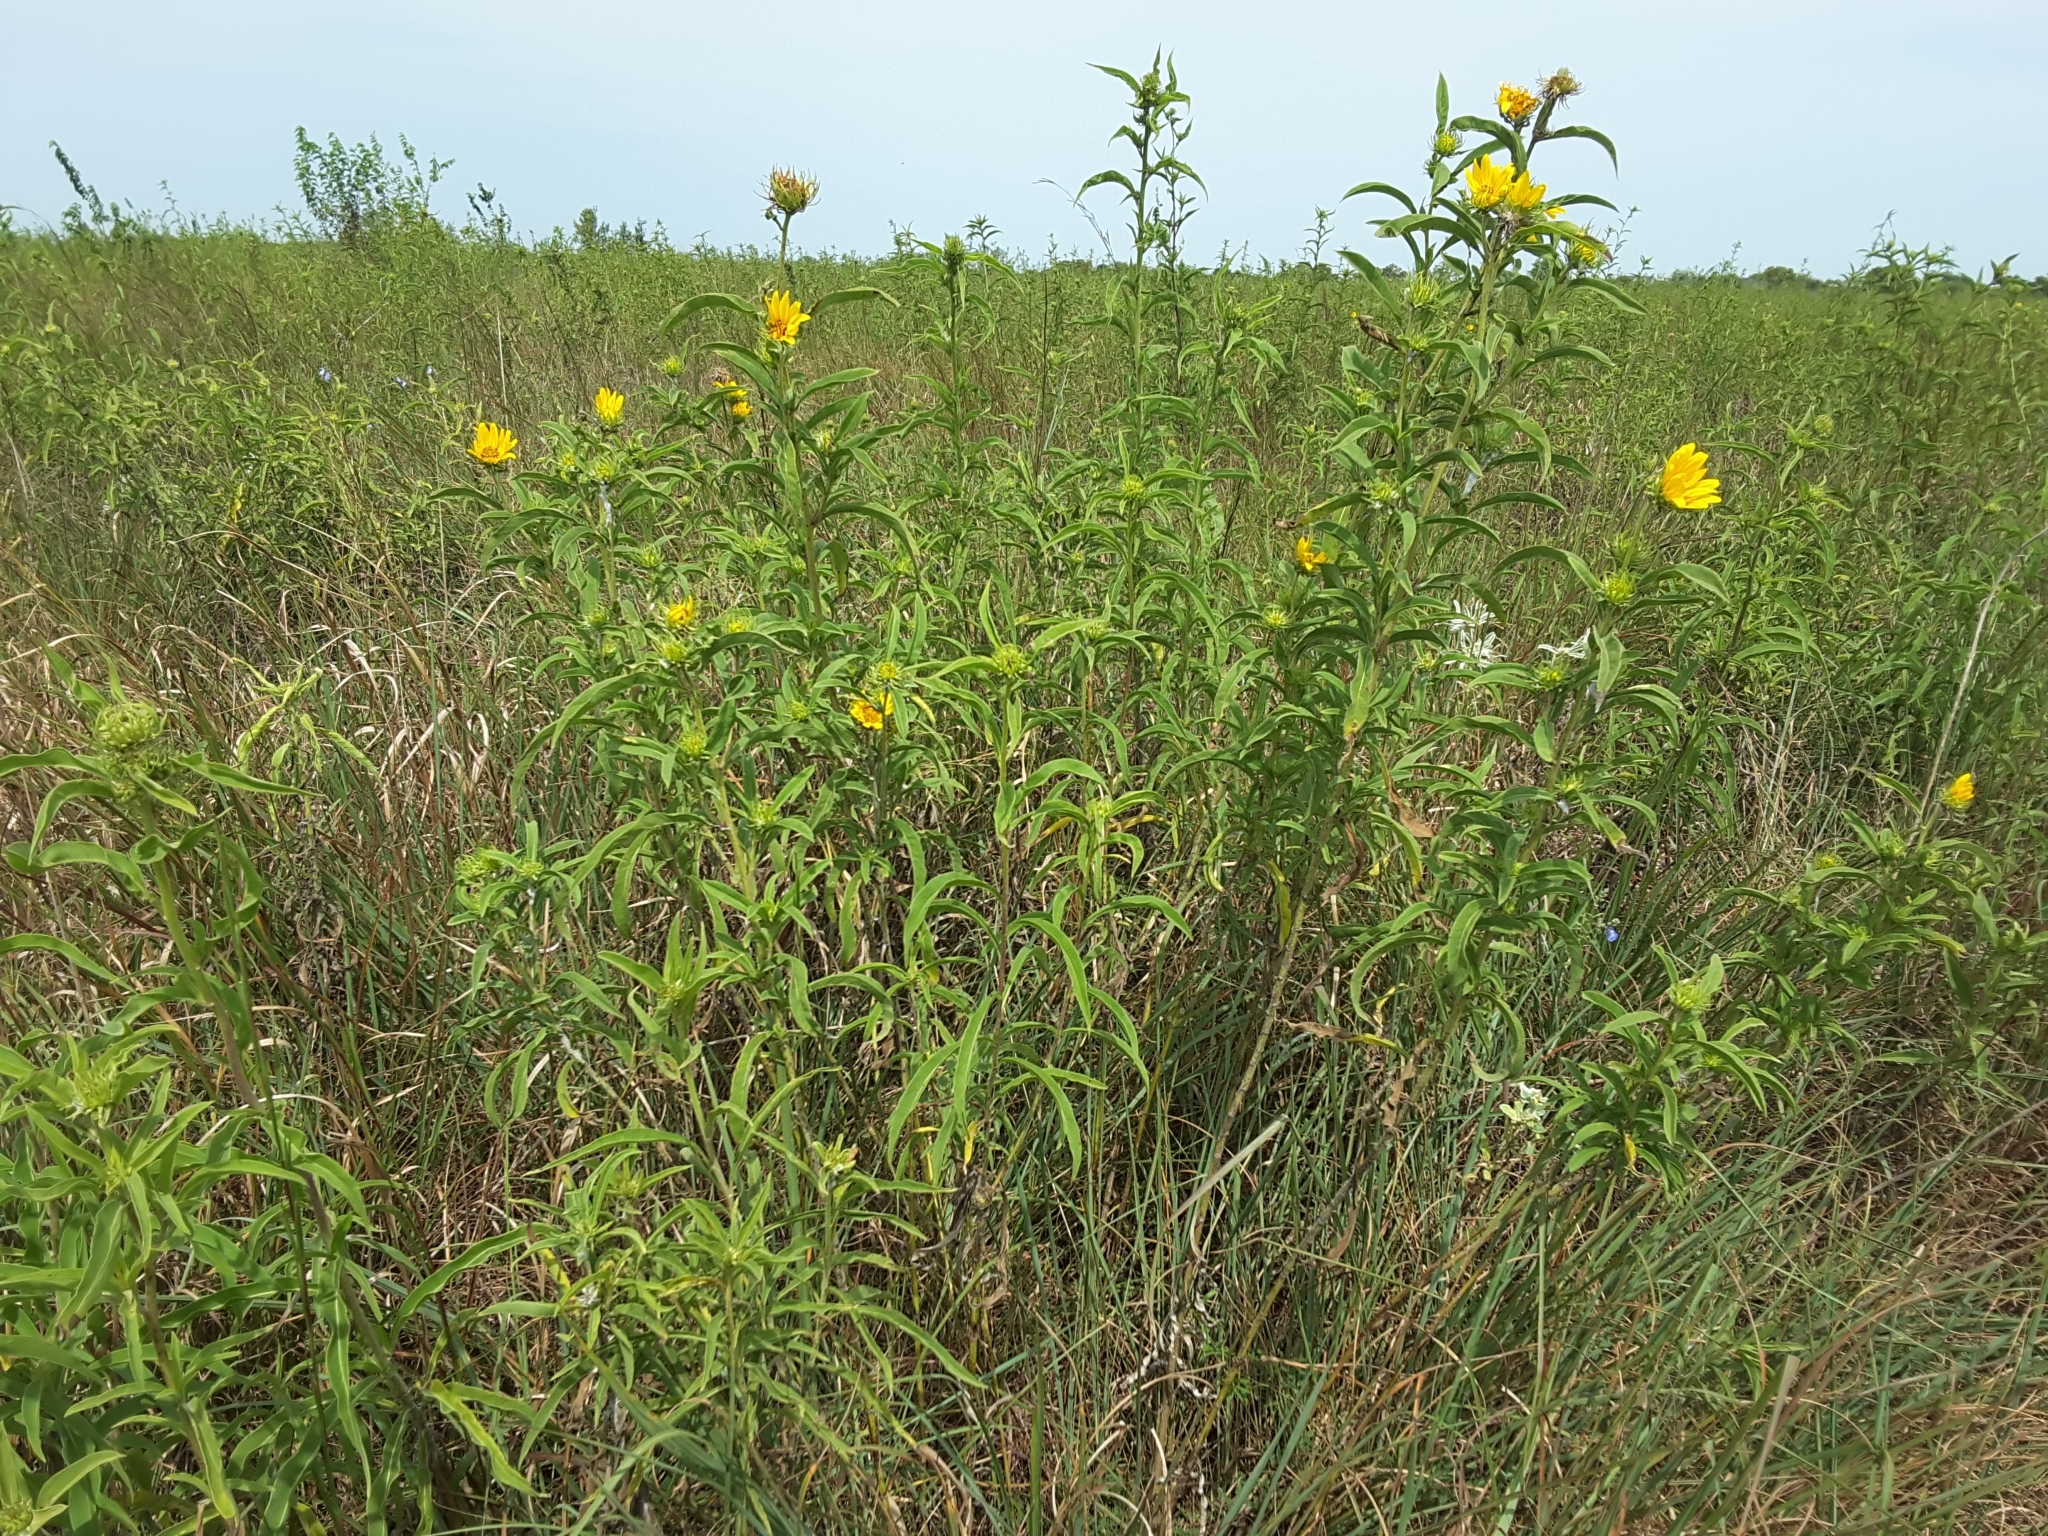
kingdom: Plantae
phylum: Tracheophyta
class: Magnoliopsida
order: Asterales
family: Asteraceae
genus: Helianthus
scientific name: Helianthus maximiliani
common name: Maximilian's sunflower
